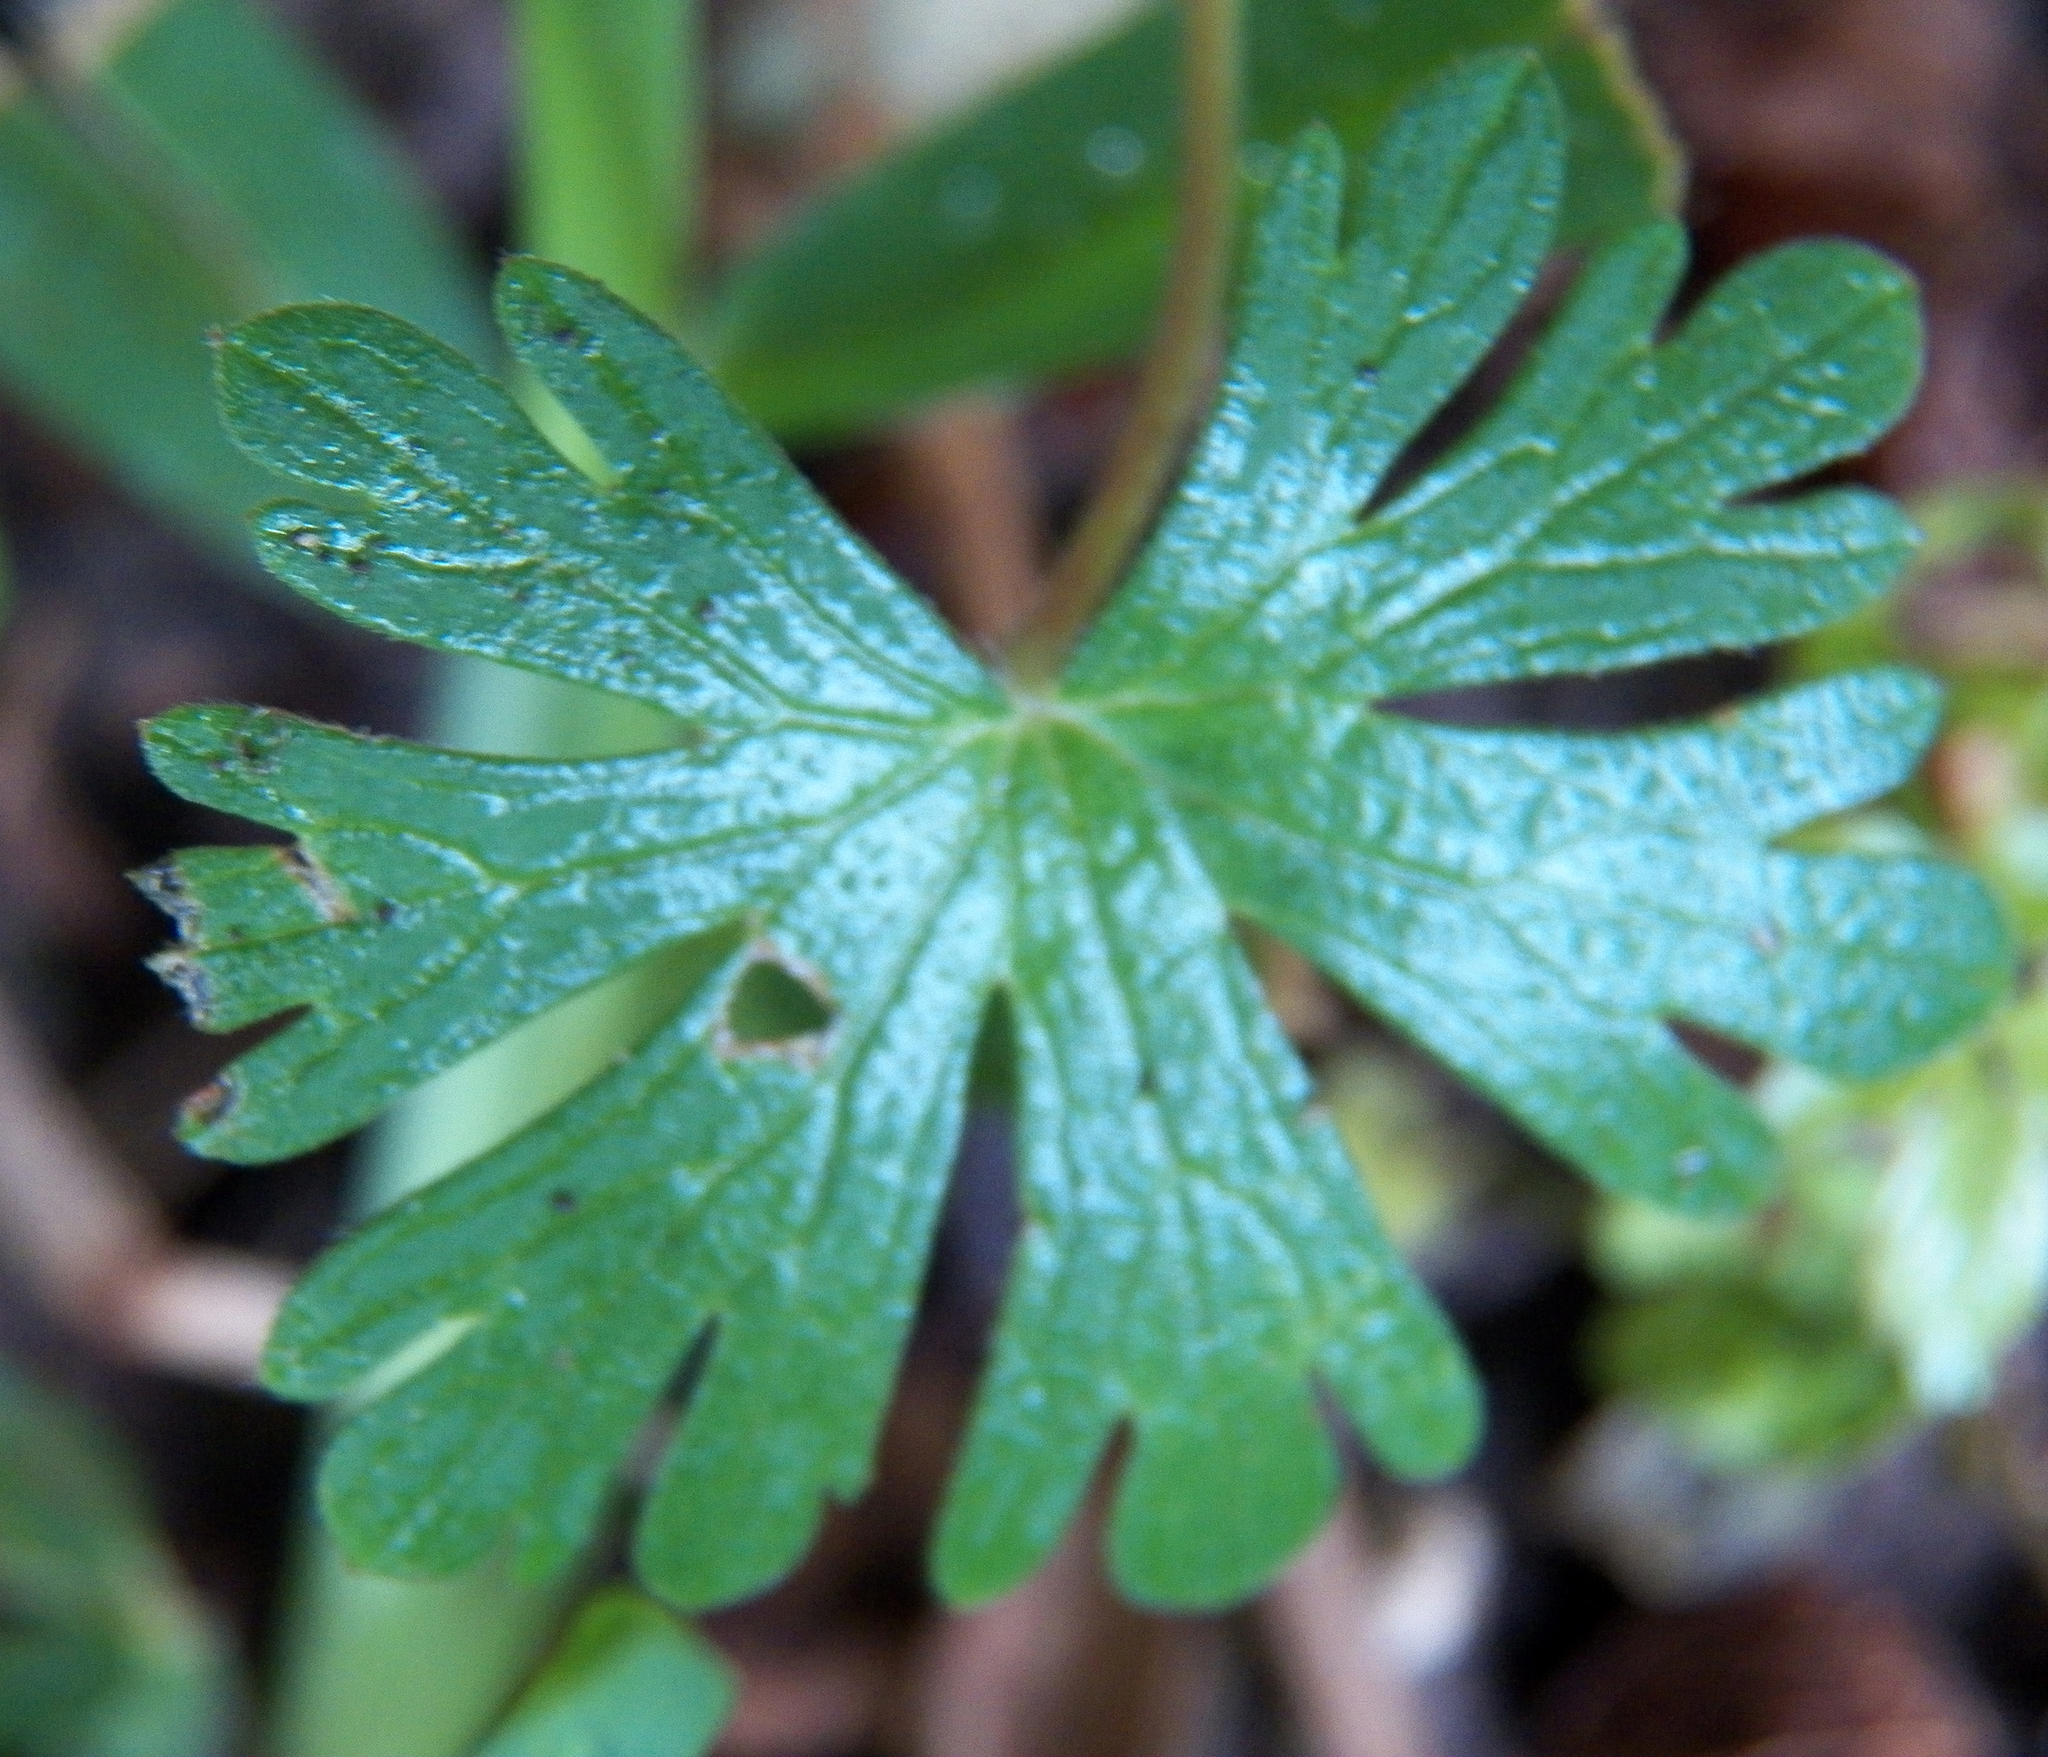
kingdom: Plantae
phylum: Tracheophyta
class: Magnoliopsida
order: Geraniales
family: Geraniaceae
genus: Geranium
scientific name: Geranium carolinianum
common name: Carolina crane's-bill
